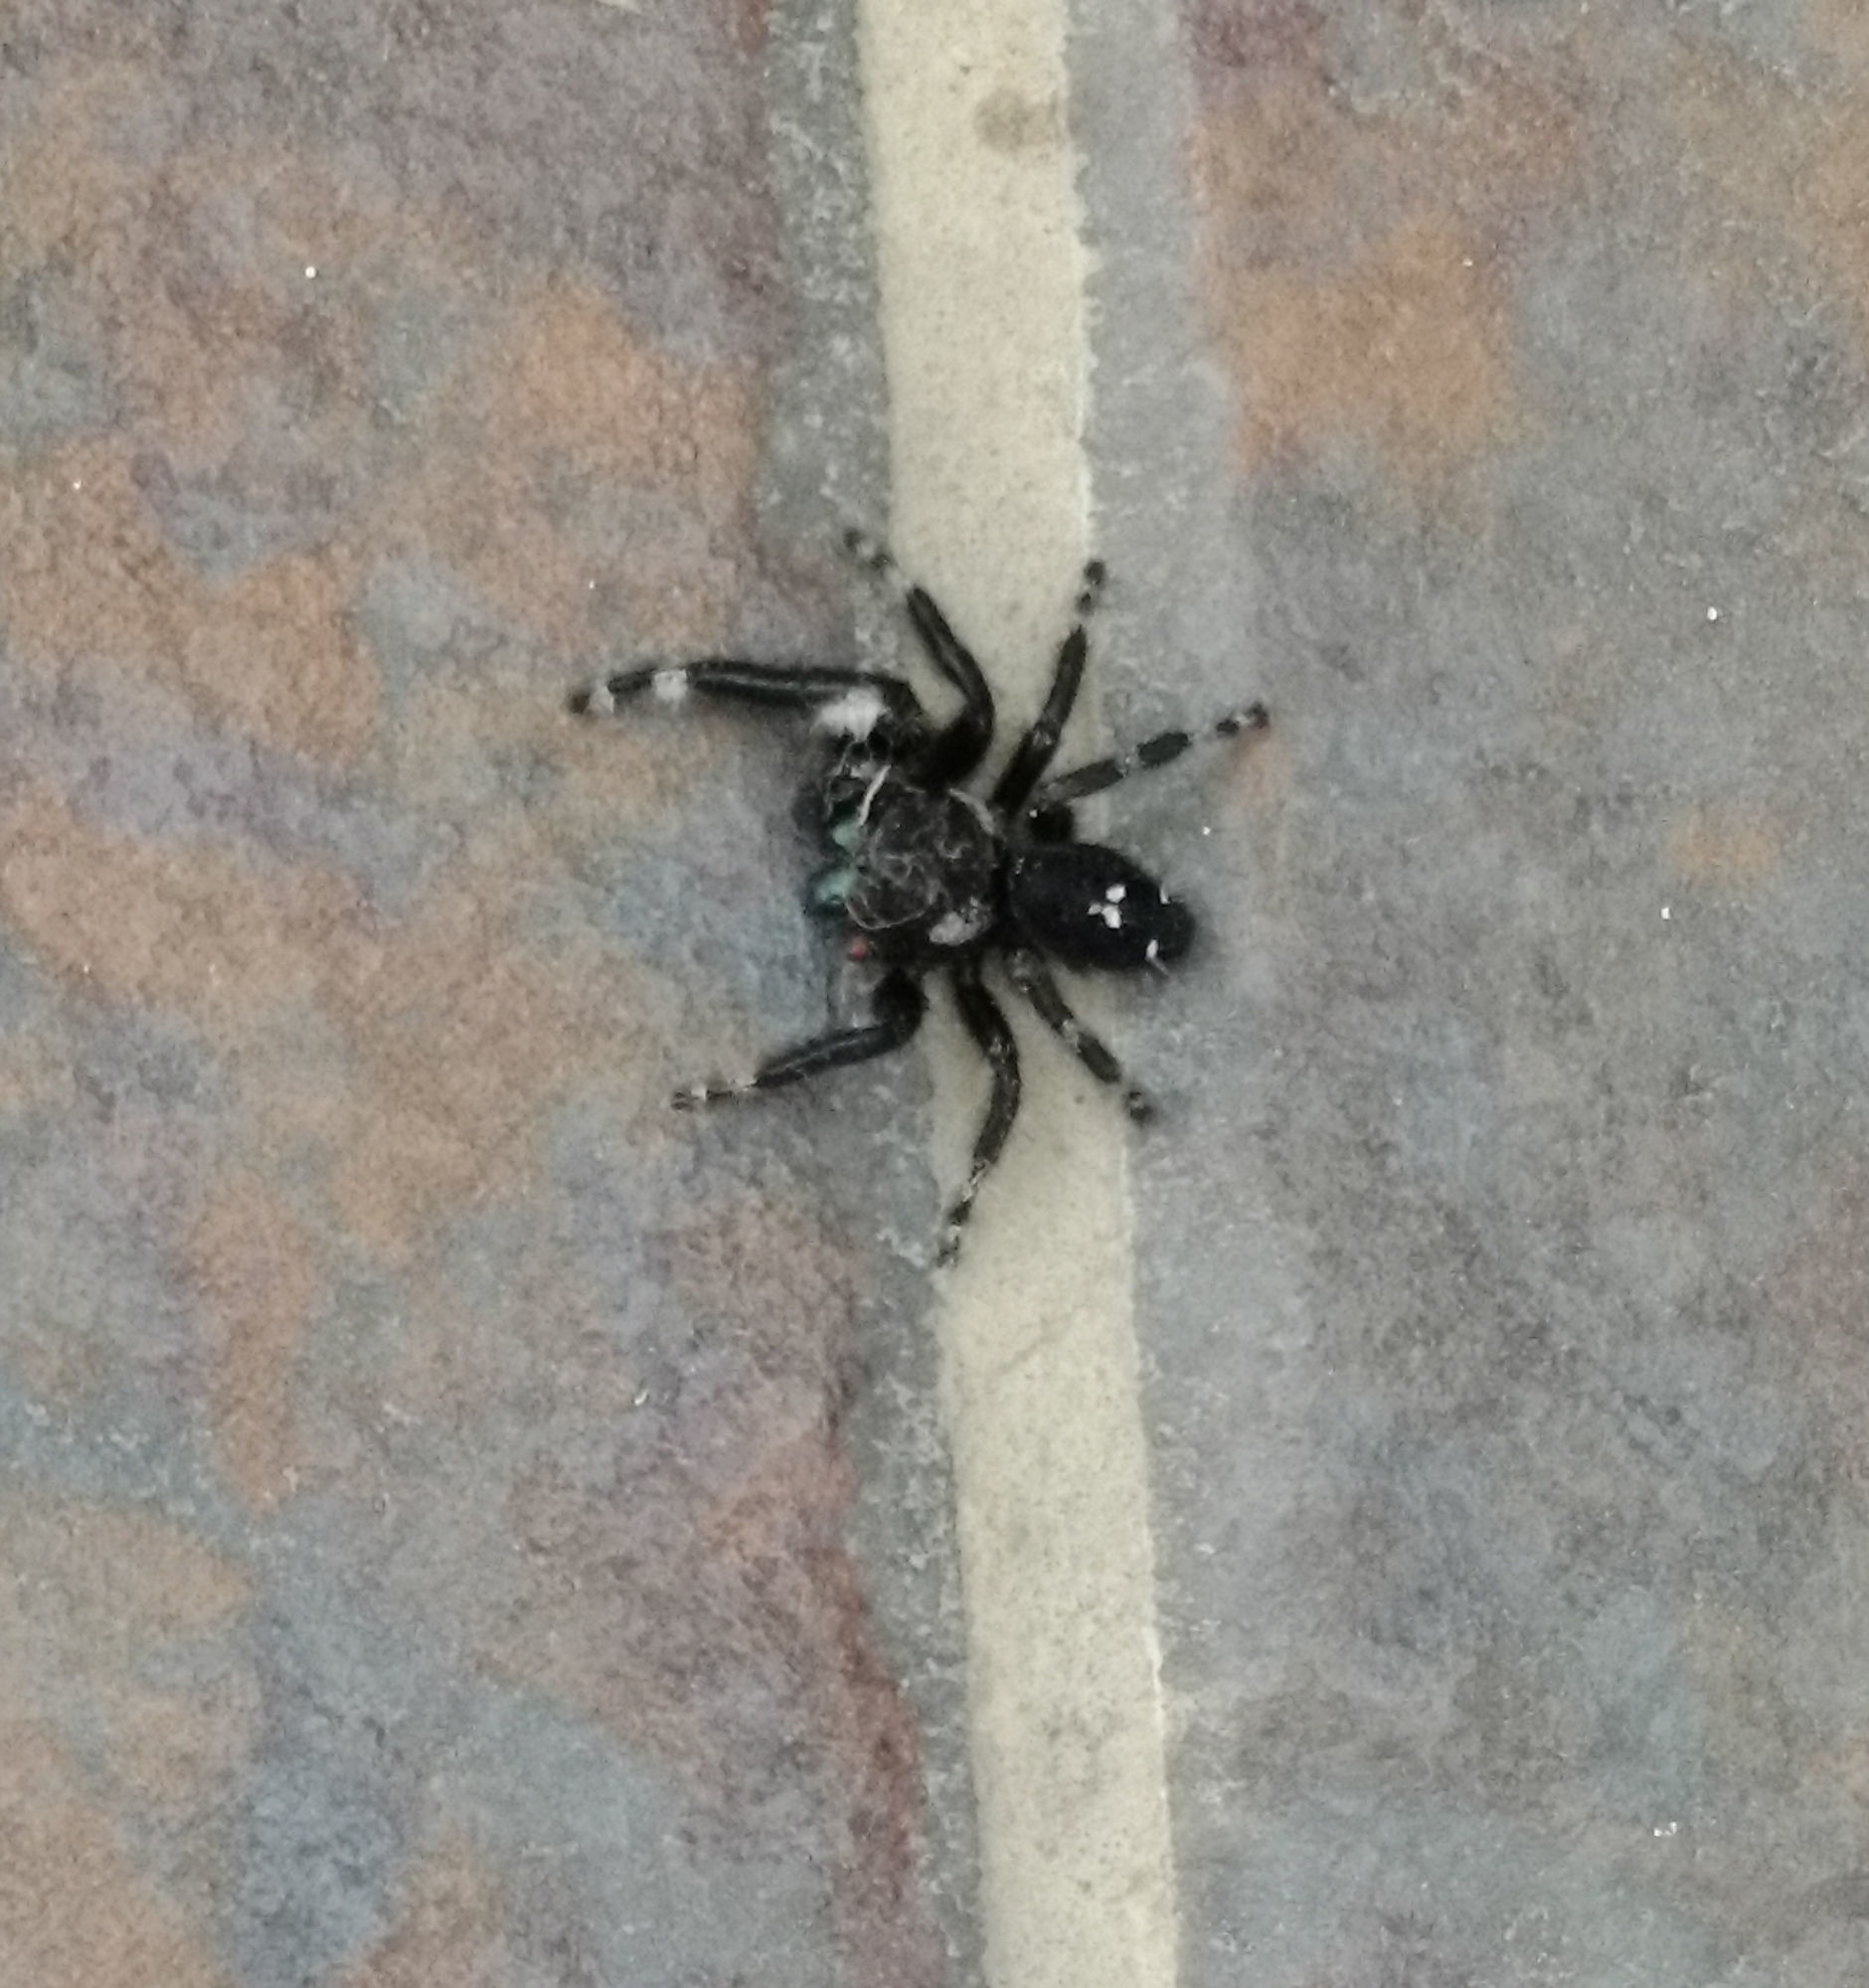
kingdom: Animalia
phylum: Arthropoda
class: Arachnida
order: Araneae
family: Salticidae
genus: Phidippus
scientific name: Phidippus audax
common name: Bold jumper
